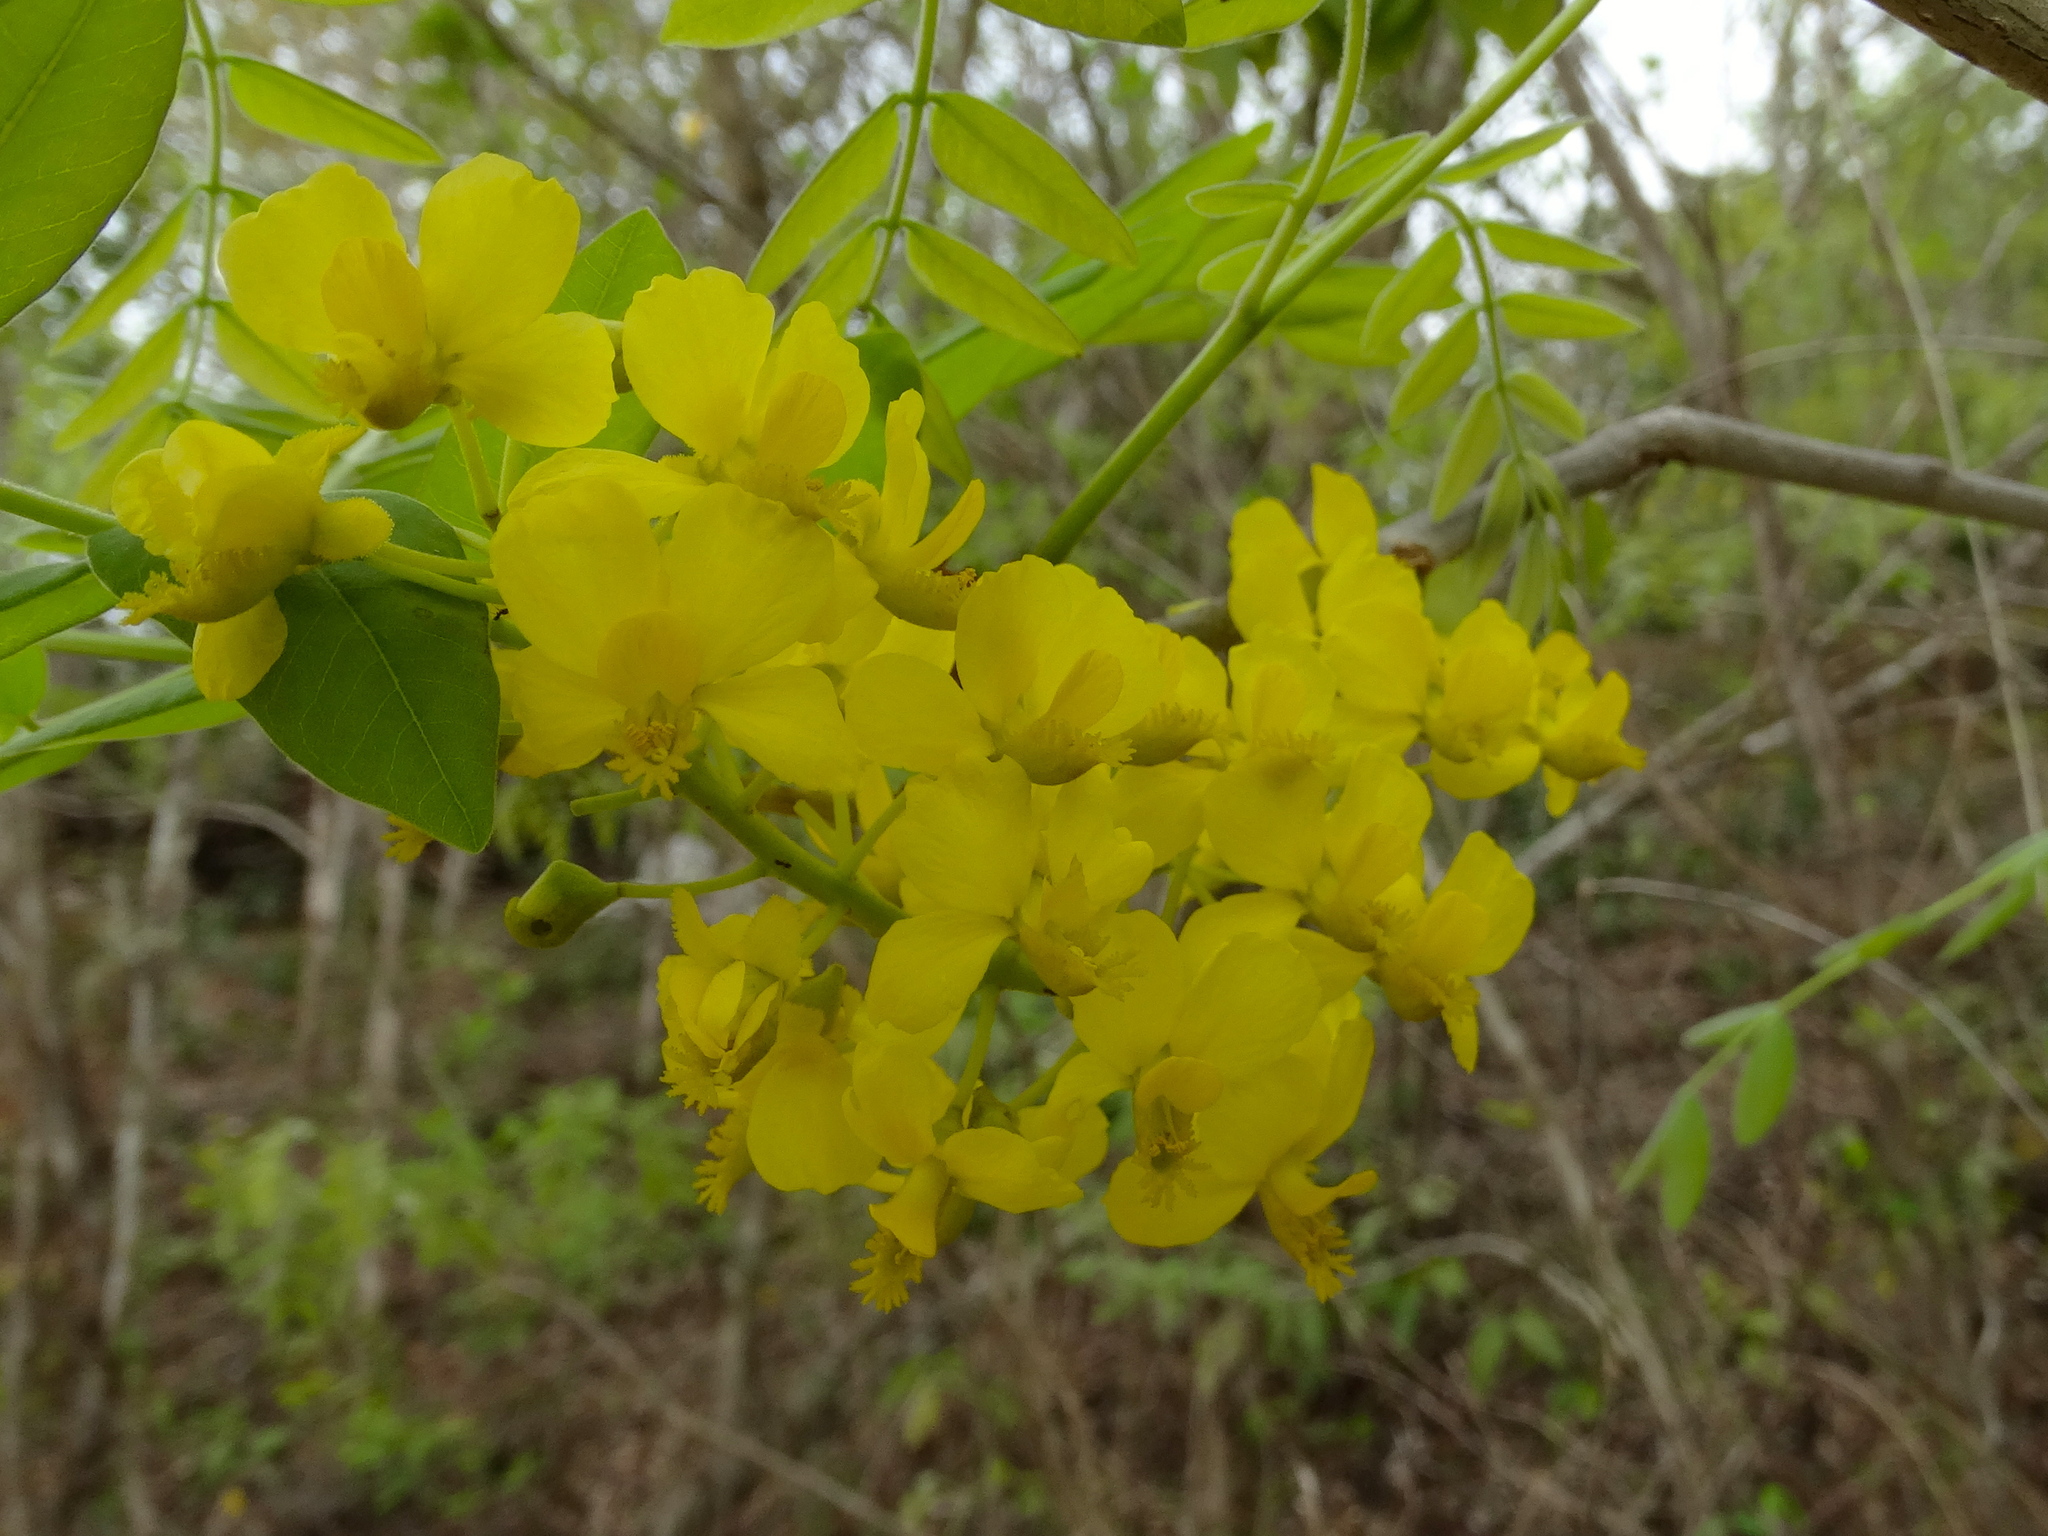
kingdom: Plantae
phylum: Tracheophyta
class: Magnoliopsida
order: Fabales
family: Fabaceae
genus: Coulteria
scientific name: Coulteria platyloba
